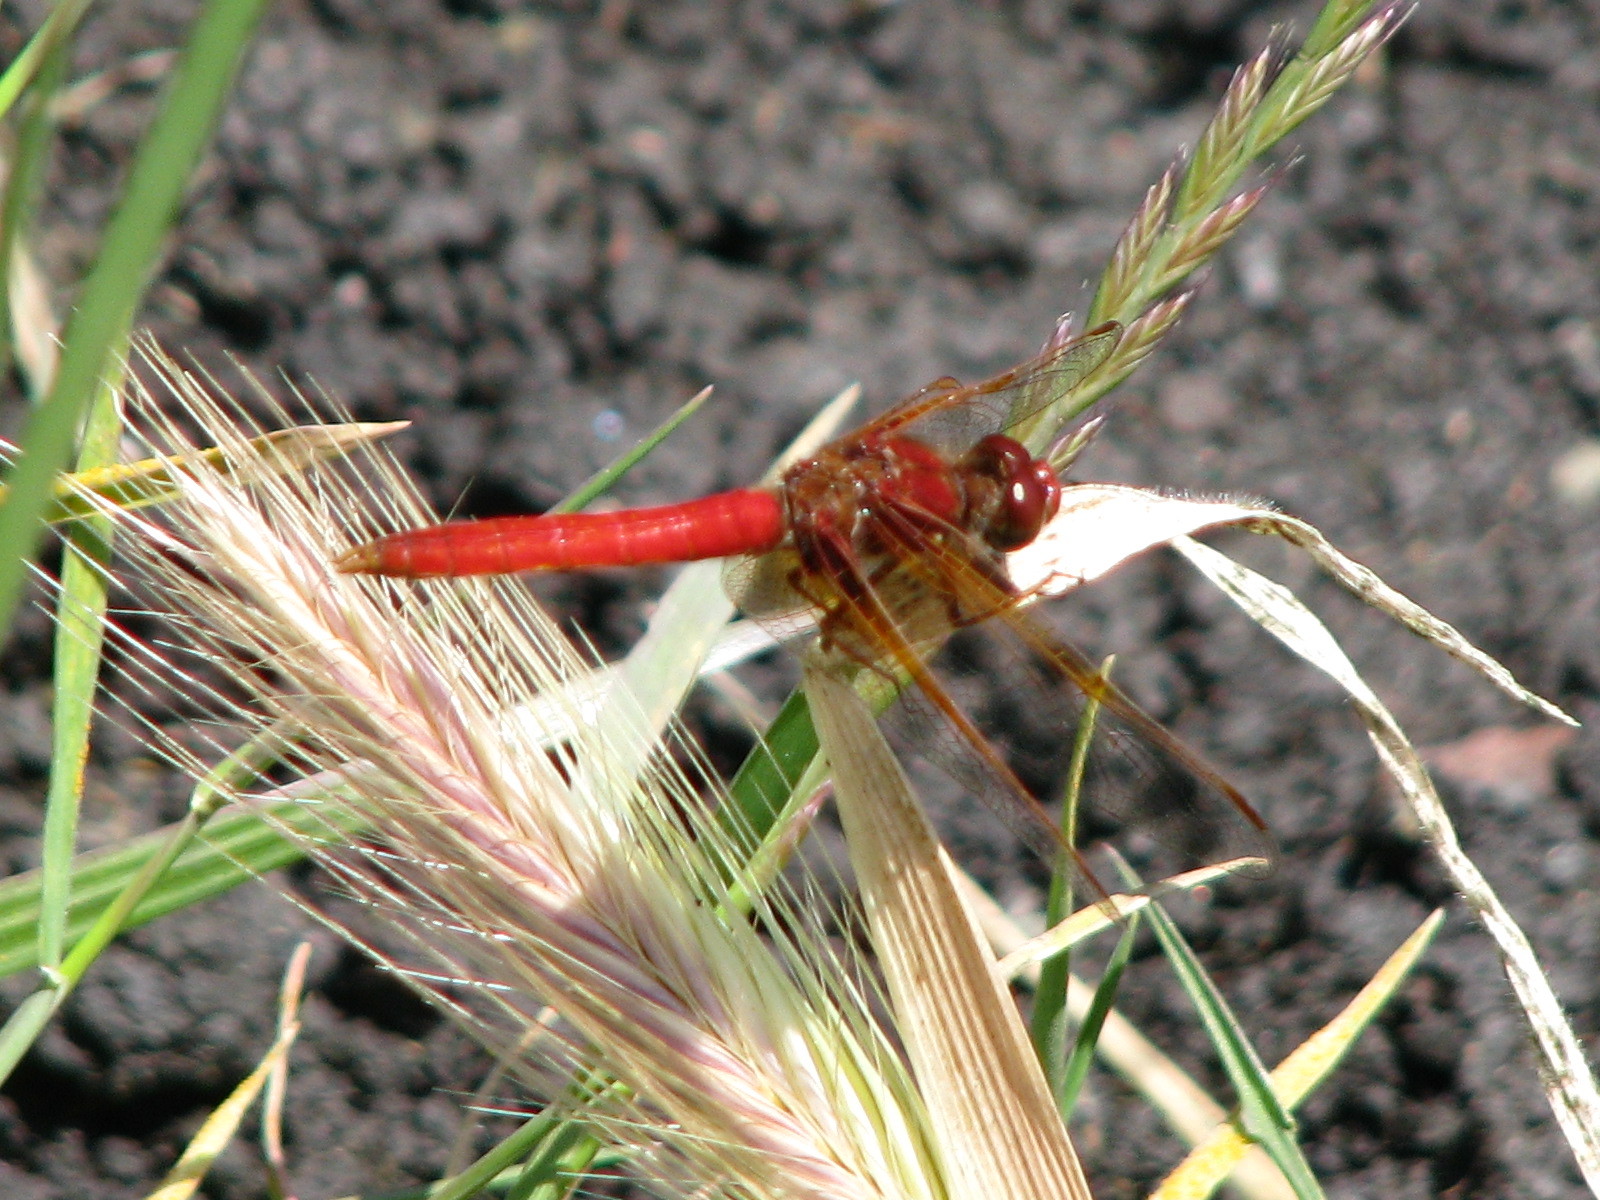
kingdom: Animalia
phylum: Arthropoda
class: Insecta
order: Odonata
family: Libellulidae
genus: Sympetrum
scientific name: Sympetrum illotum
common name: Cardinal meadowhawk
